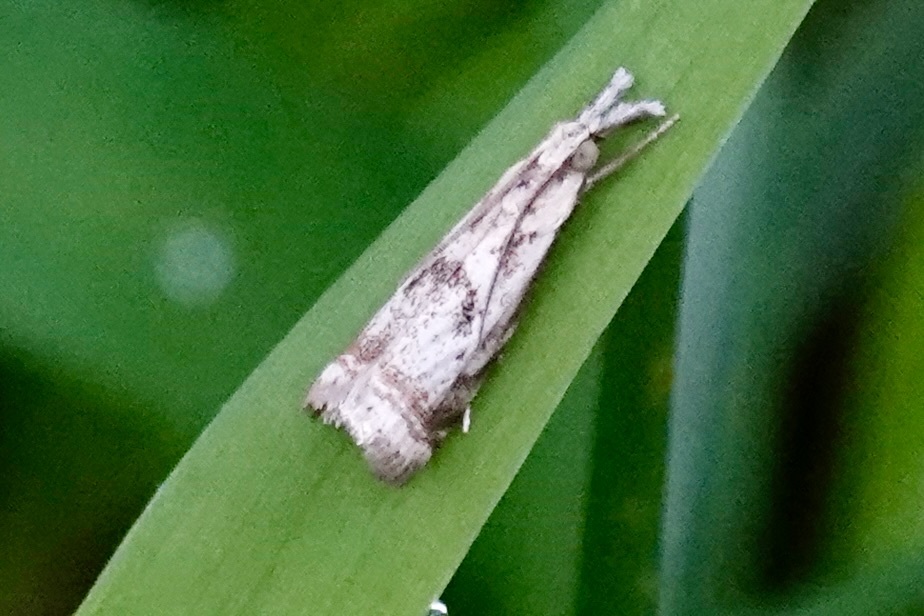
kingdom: Animalia
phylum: Arthropoda
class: Insecta
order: Lepidoptera
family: Crambidae
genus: Microcrambus
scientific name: Microcrambus elegans
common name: Elegant grass-veneer
